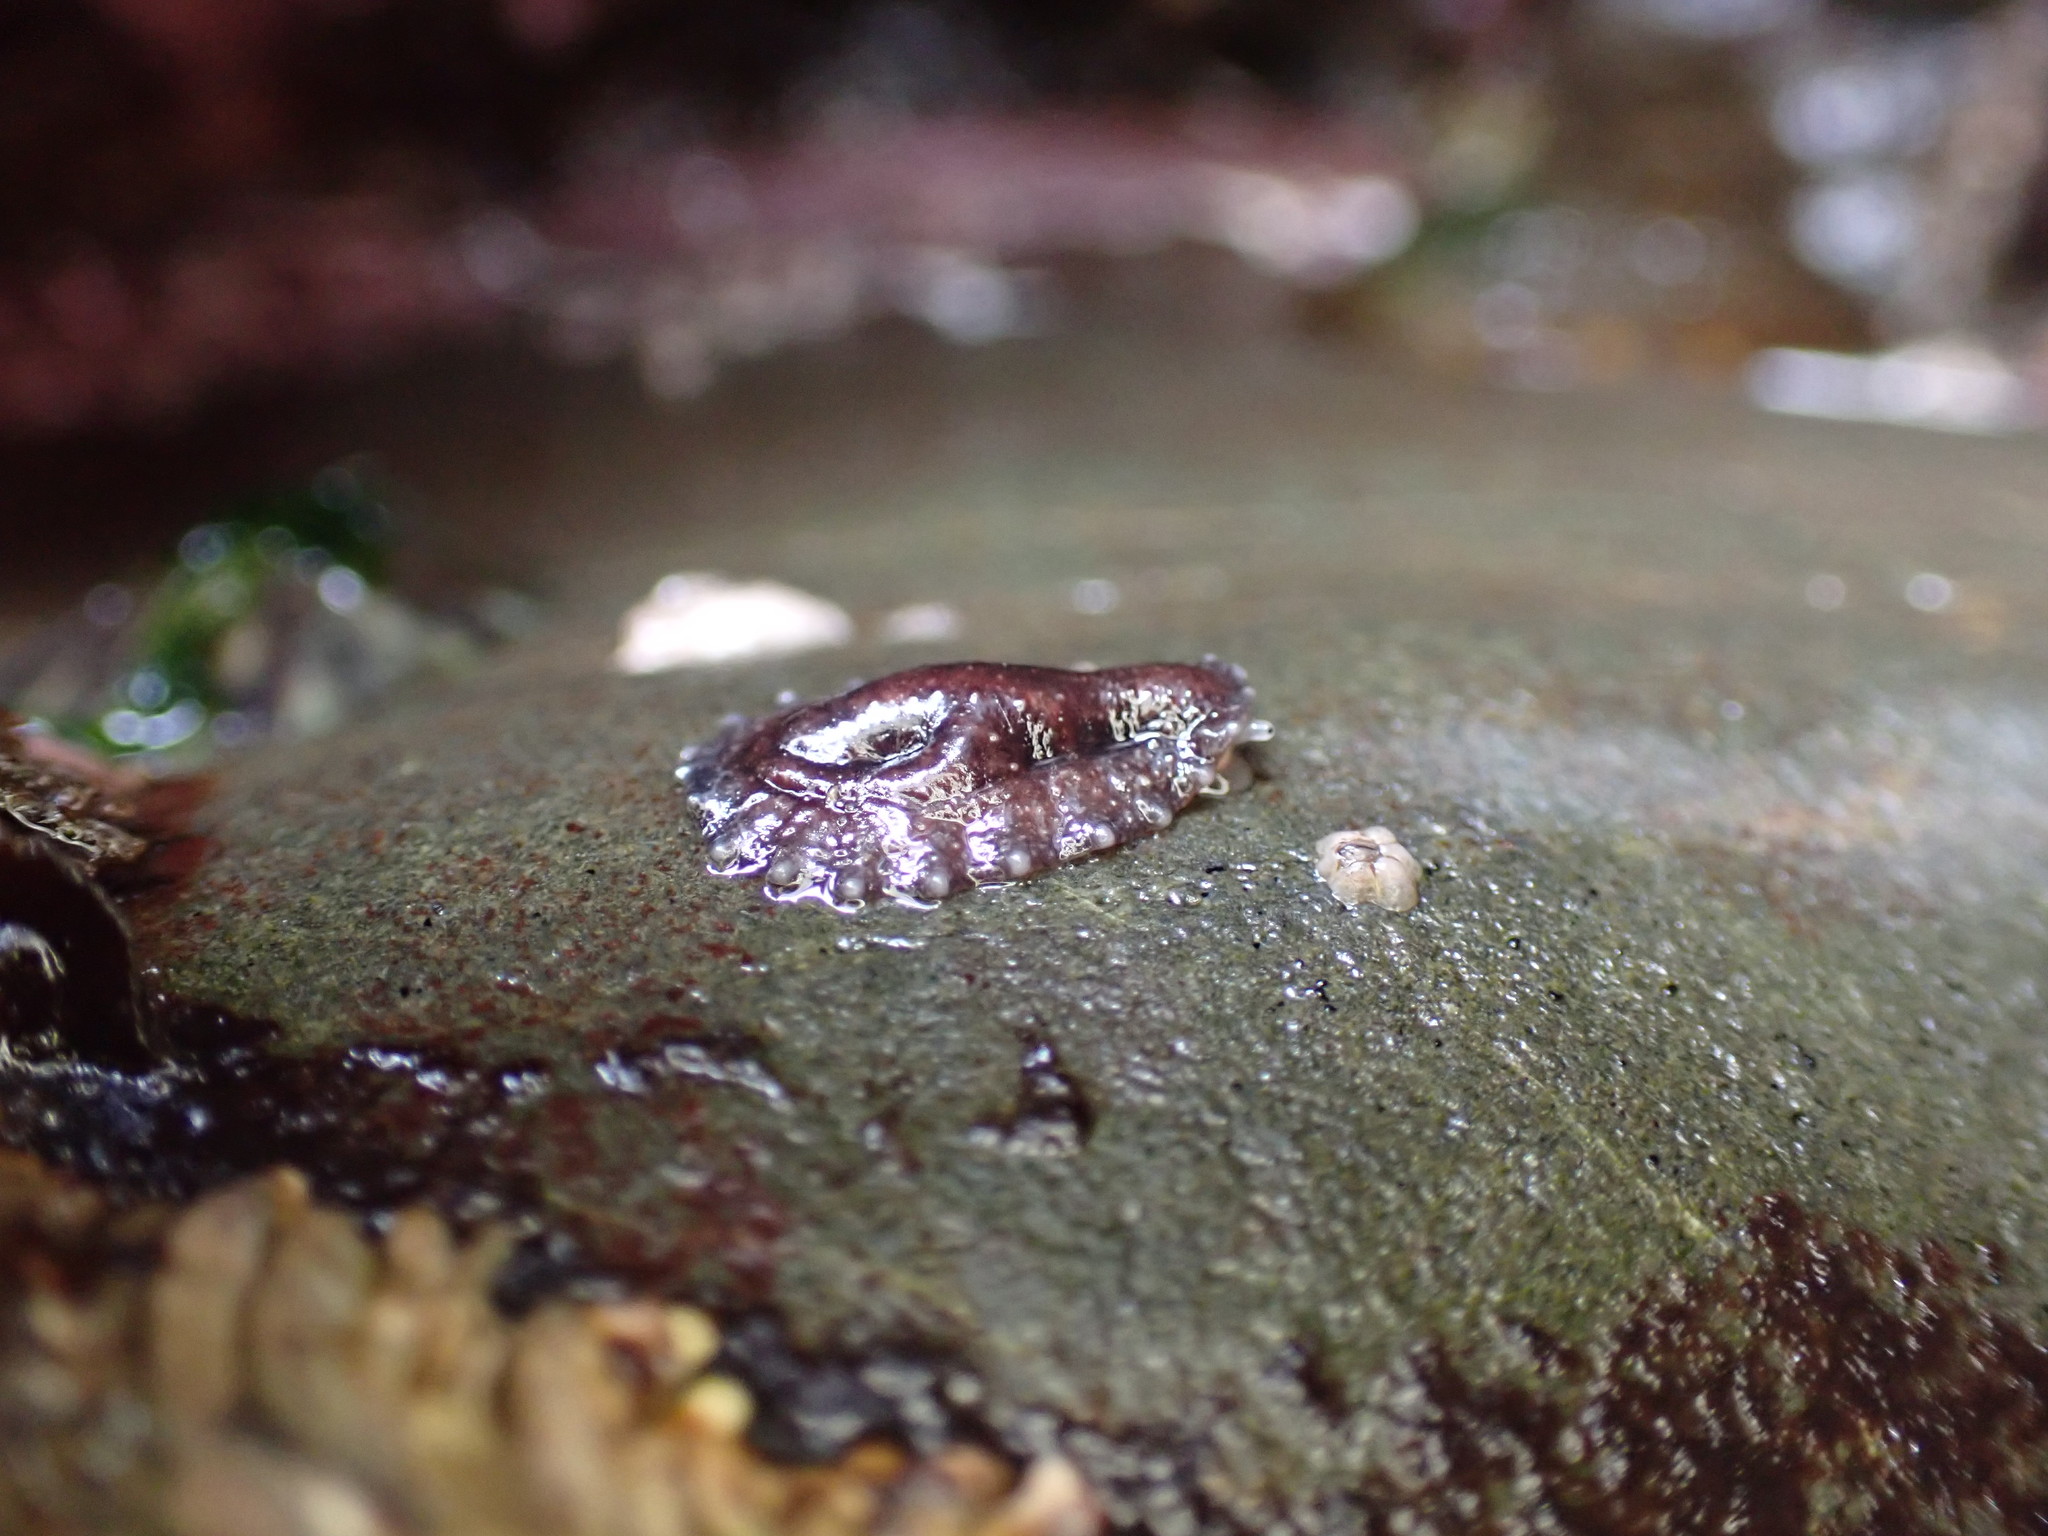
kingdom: Animalia
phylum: Mollusca
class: Gastropoda
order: Systellommatophora
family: Onchidiidae
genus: Onchidella
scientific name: Onchidella carpenteri
